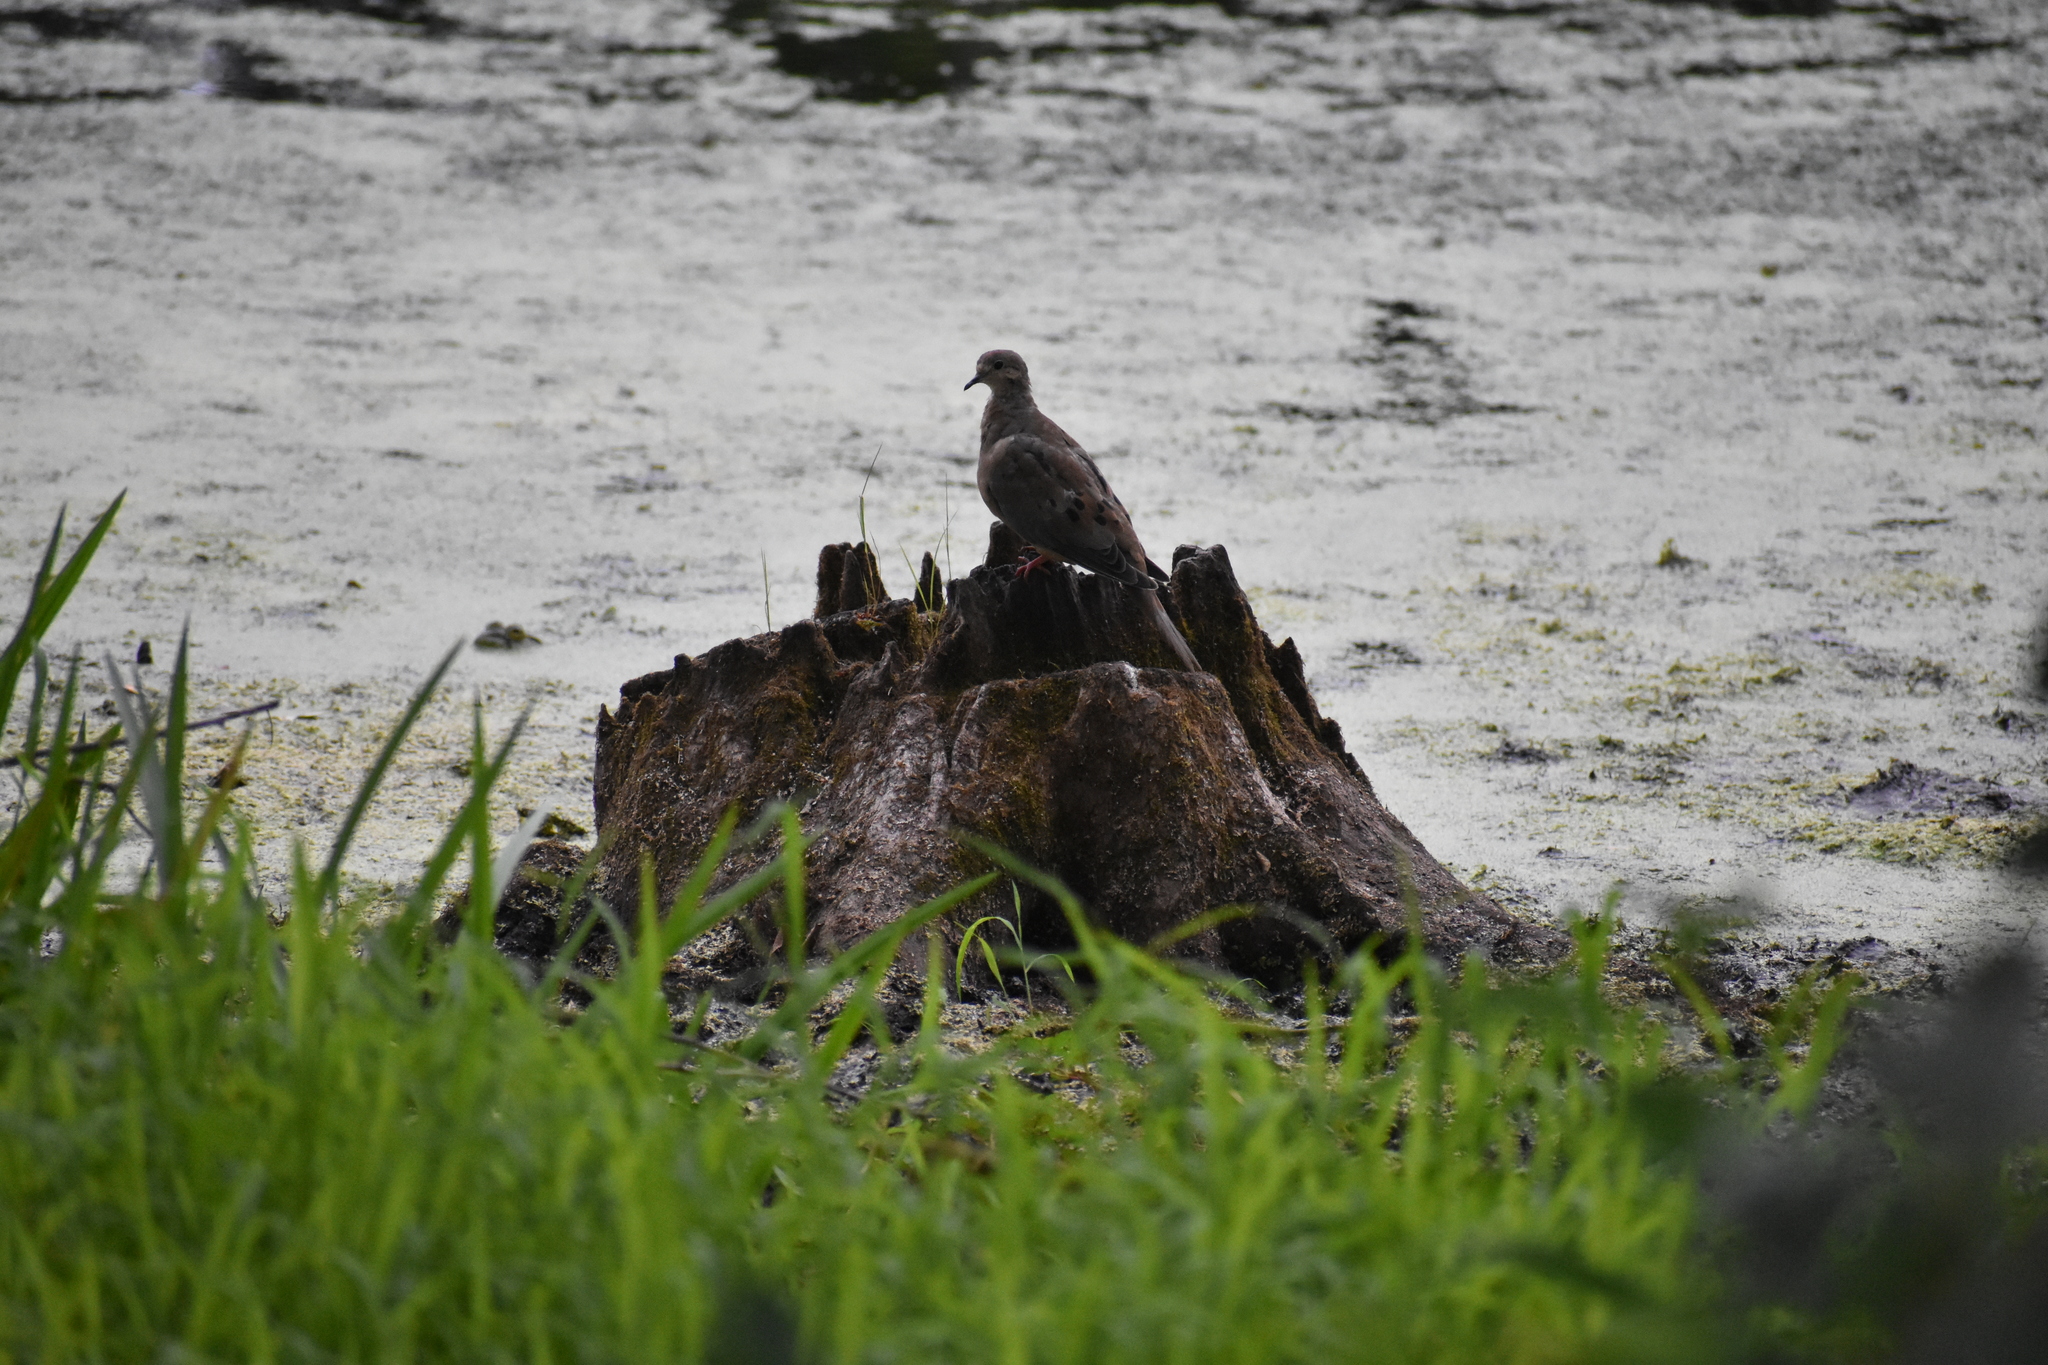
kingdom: Animalia
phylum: Chordata
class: Aves
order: Columbiformes
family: Columbidae
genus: Zenaida
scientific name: Zenaida macroura
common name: Mourning dove
